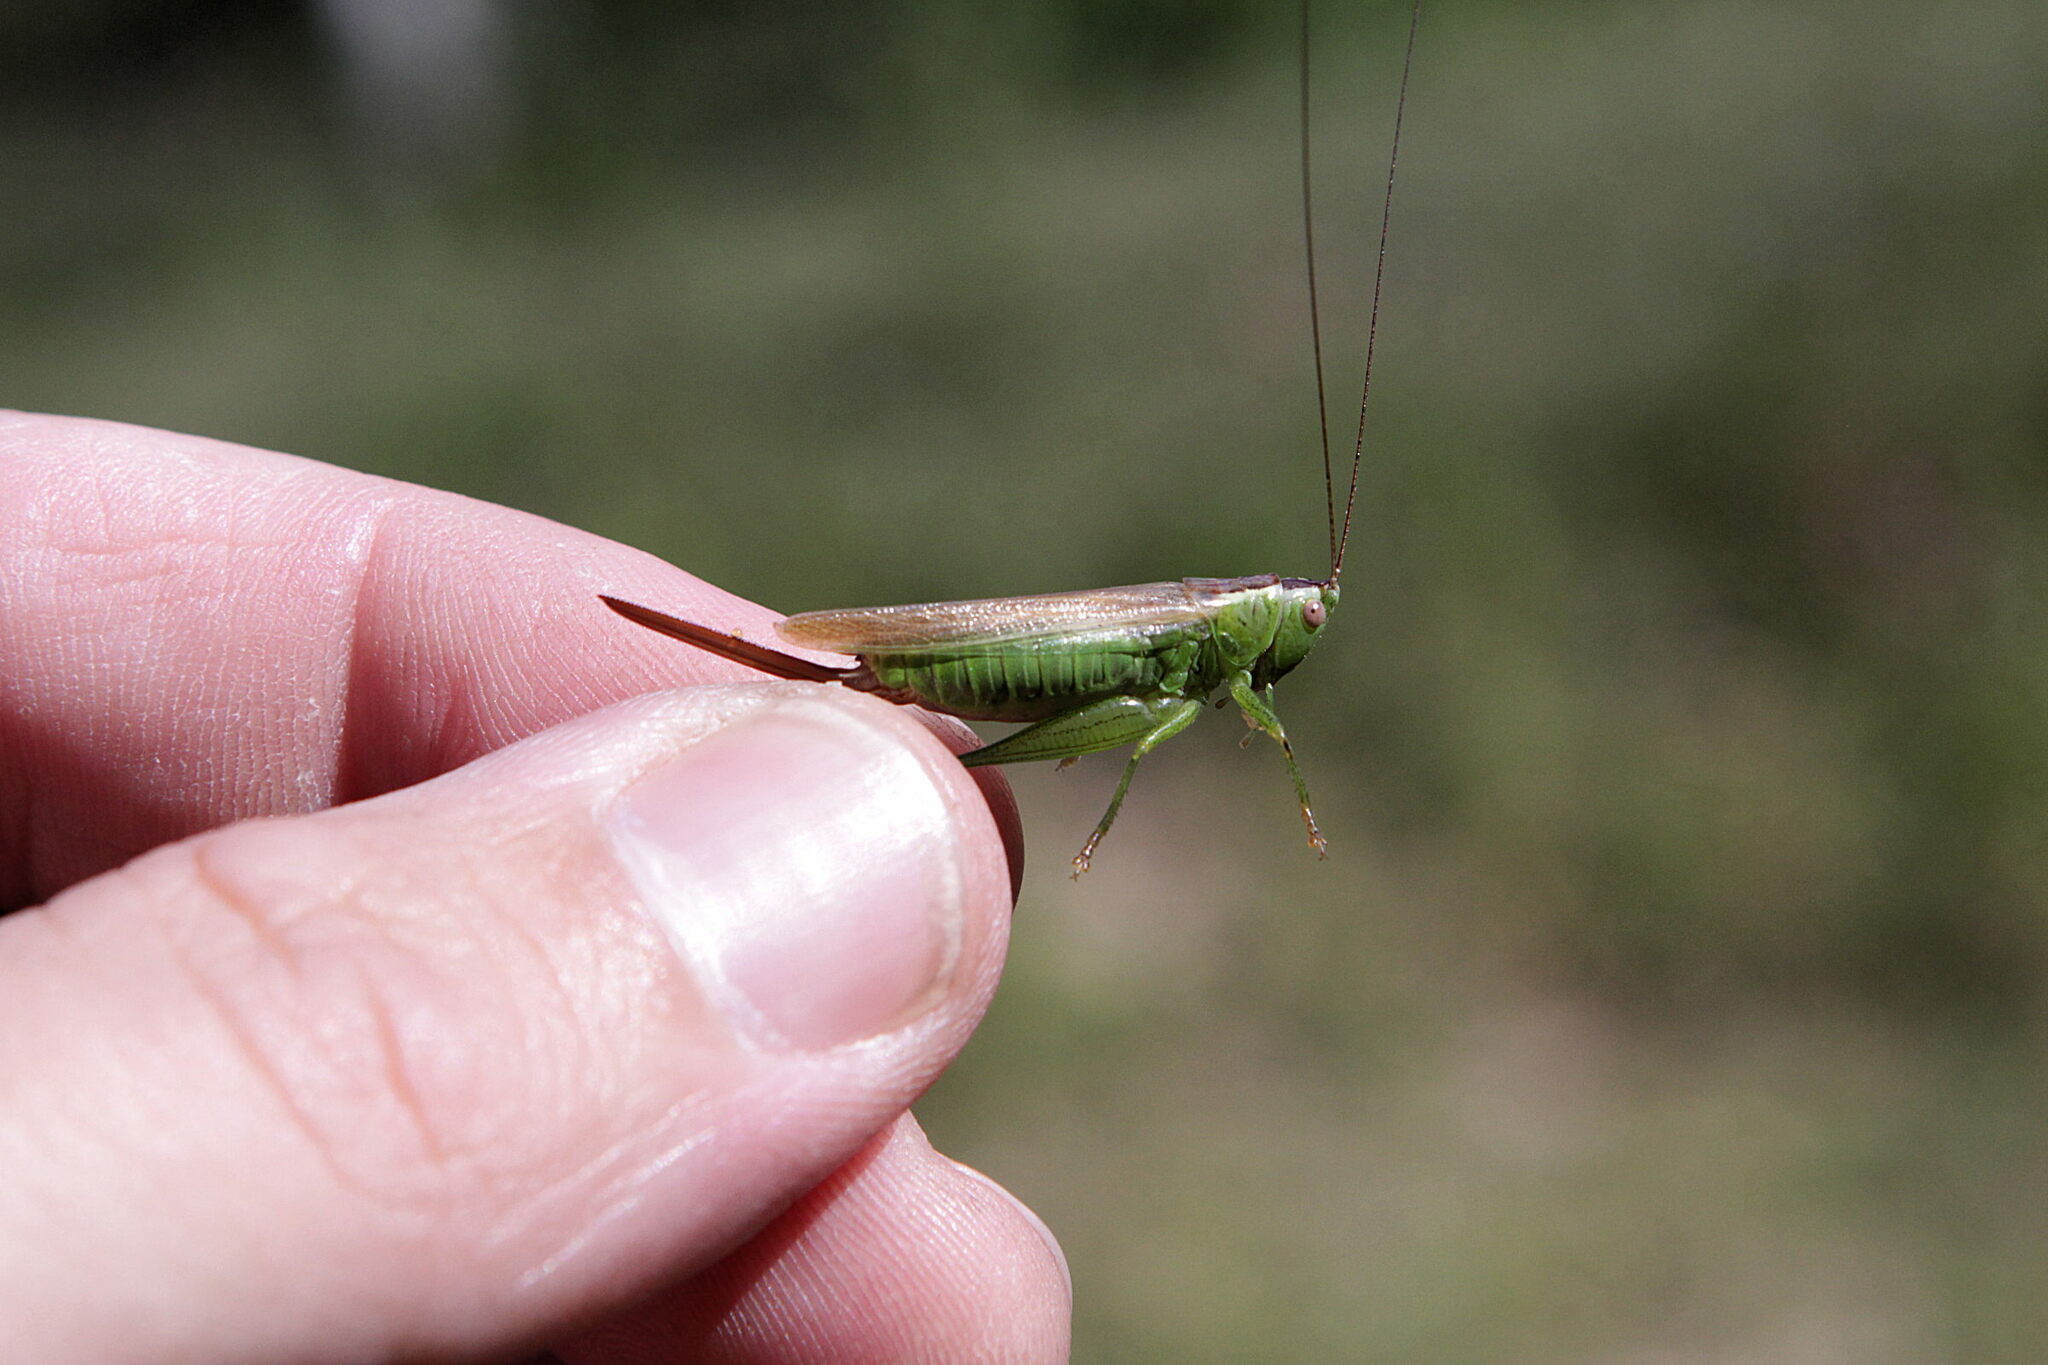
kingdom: Animalia
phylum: Arthropoda
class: Insecta
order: Orthoptera
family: Tettigoniidae
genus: Conocephalus
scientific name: Conocephalus fuscus
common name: Long-winged conehead
